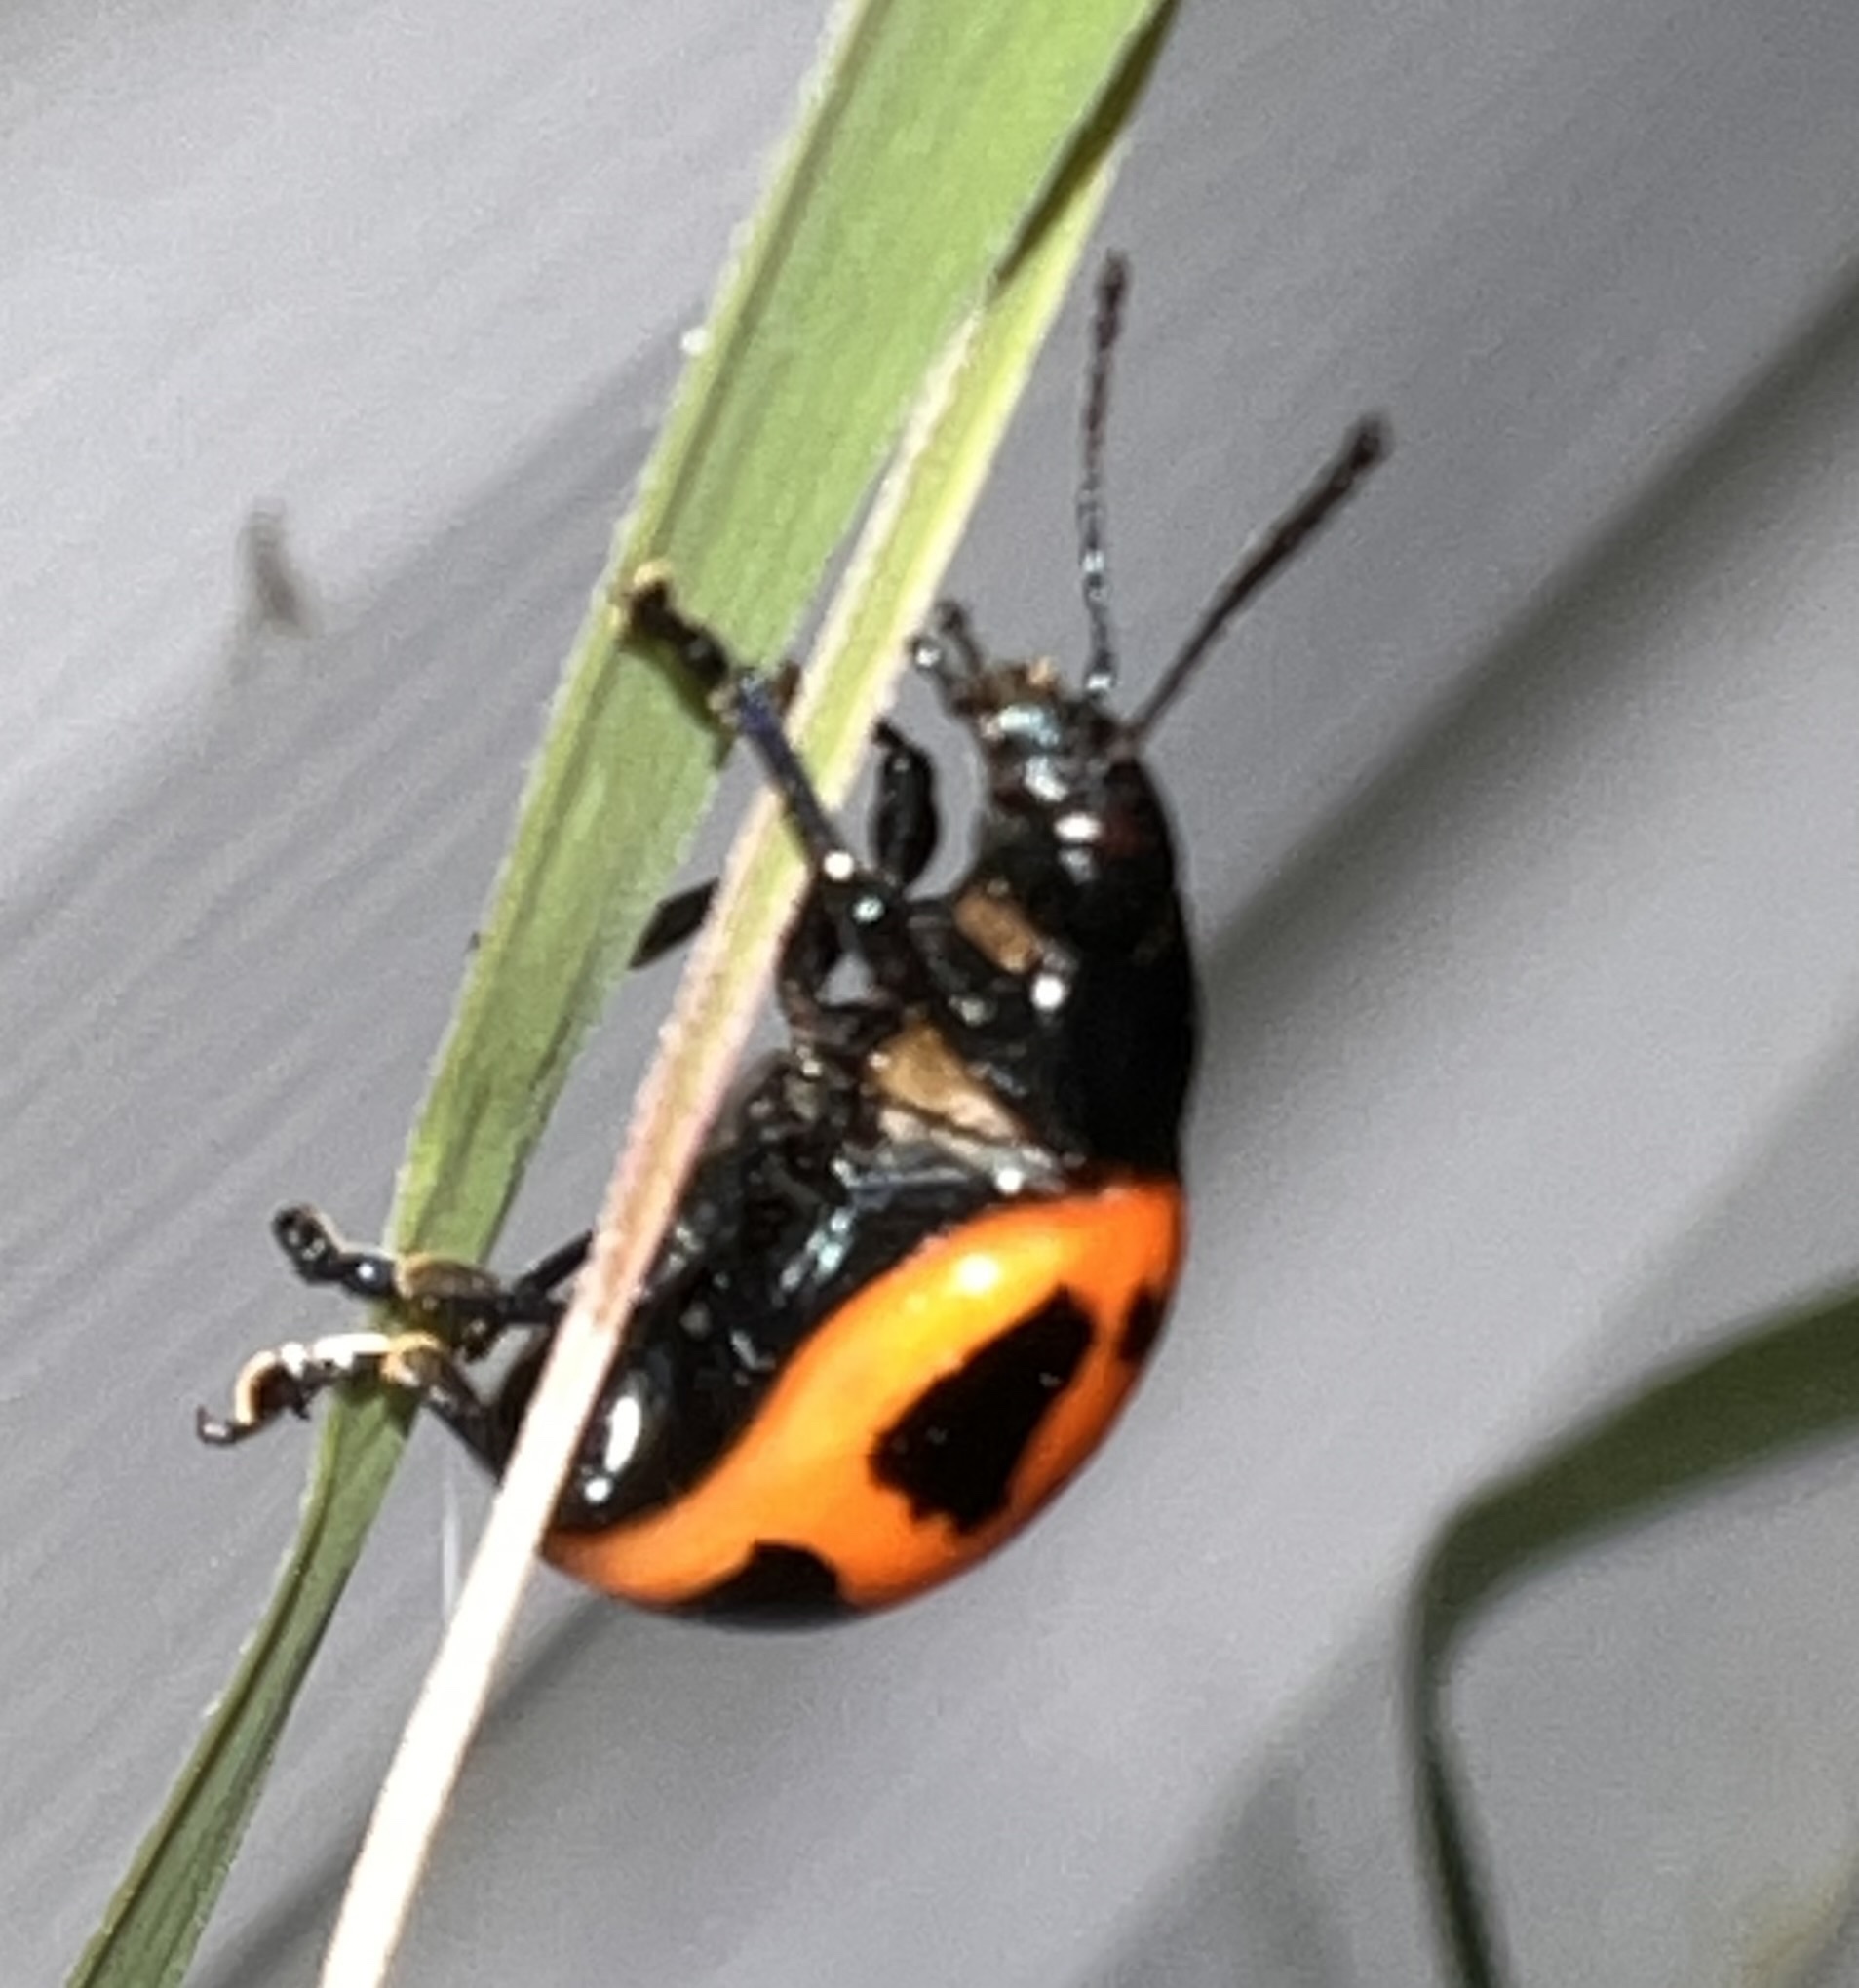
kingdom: Animalia
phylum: Arthropoda
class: Insecta
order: Coleoptera
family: Chrysomelidae
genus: Labidomera
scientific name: Labidomera clivicollis
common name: Swamp milkweed leaf beetle
